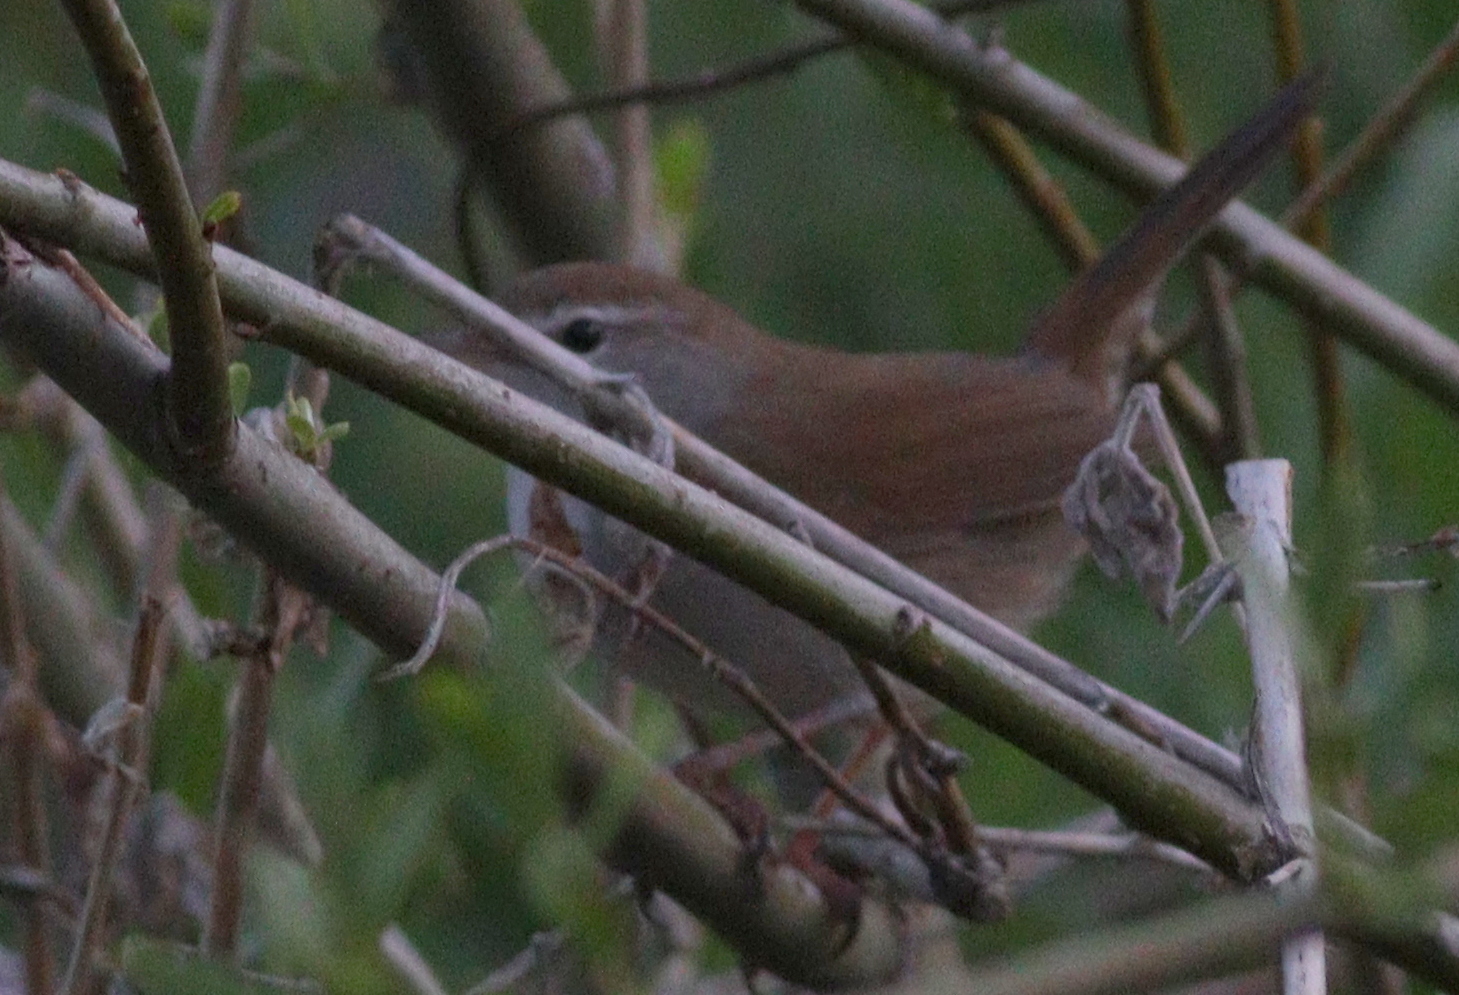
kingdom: Animalia
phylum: Chordata
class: Aves
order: Passeriformes
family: Cettiidae
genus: Cettia
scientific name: Cettia cetti
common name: Cetti's warbler
